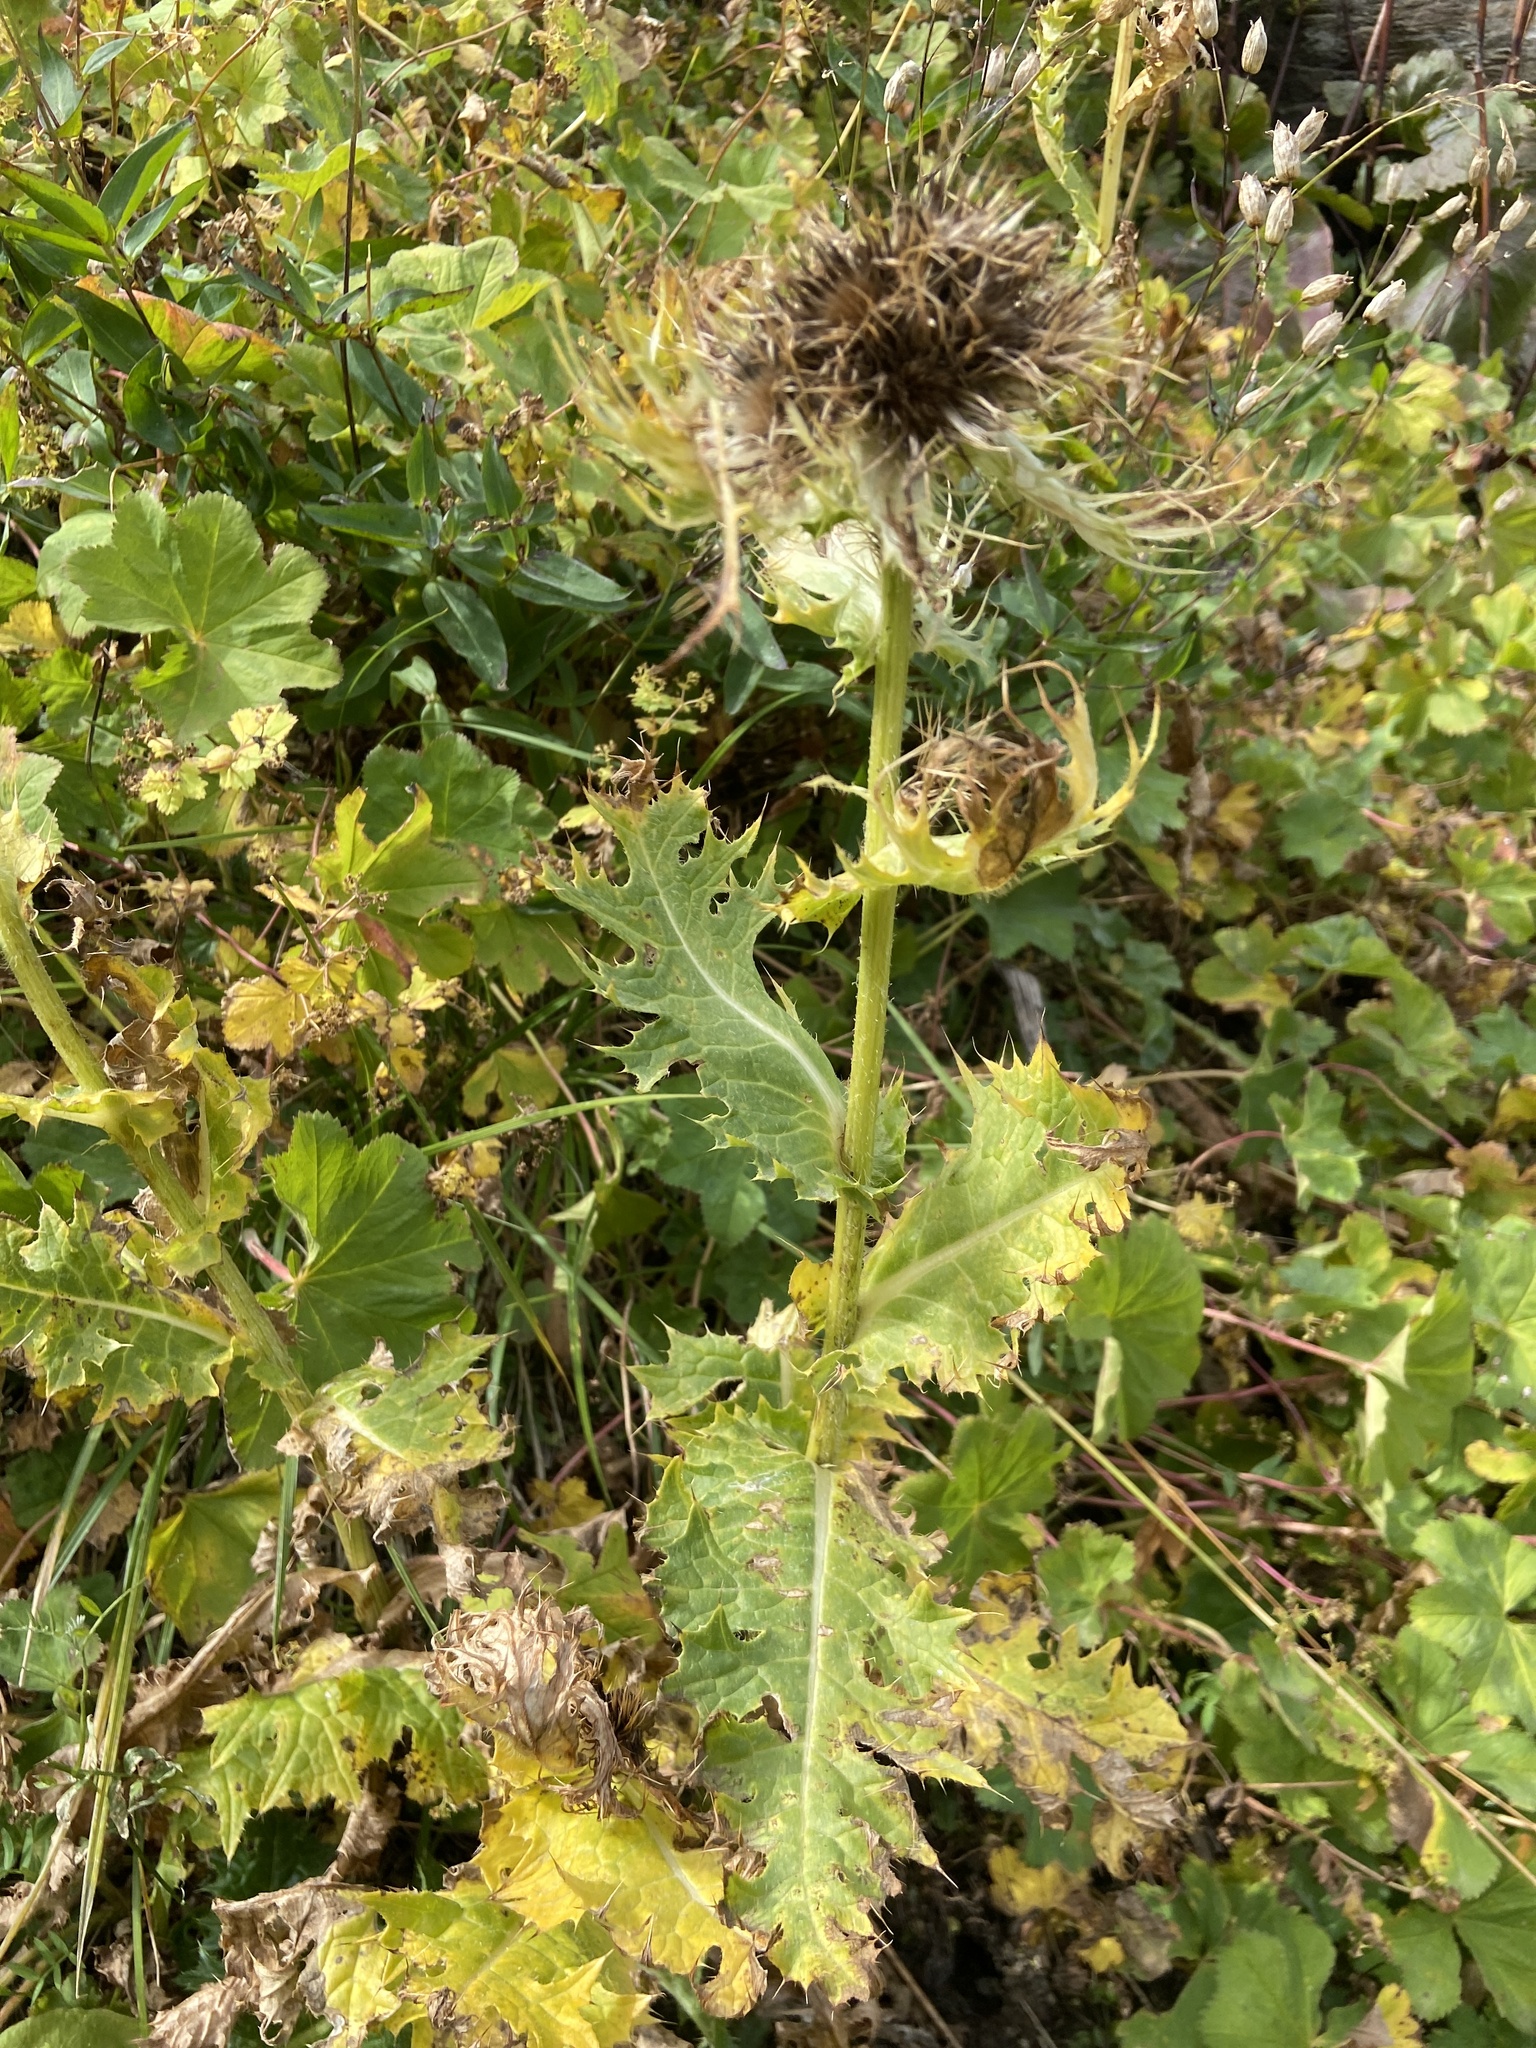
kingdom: Plantae
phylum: Tracheophyta
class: Magnoliopsida
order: Asterales
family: Asteraceae
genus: Cirsium
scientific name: Cirsium spinosissimum
